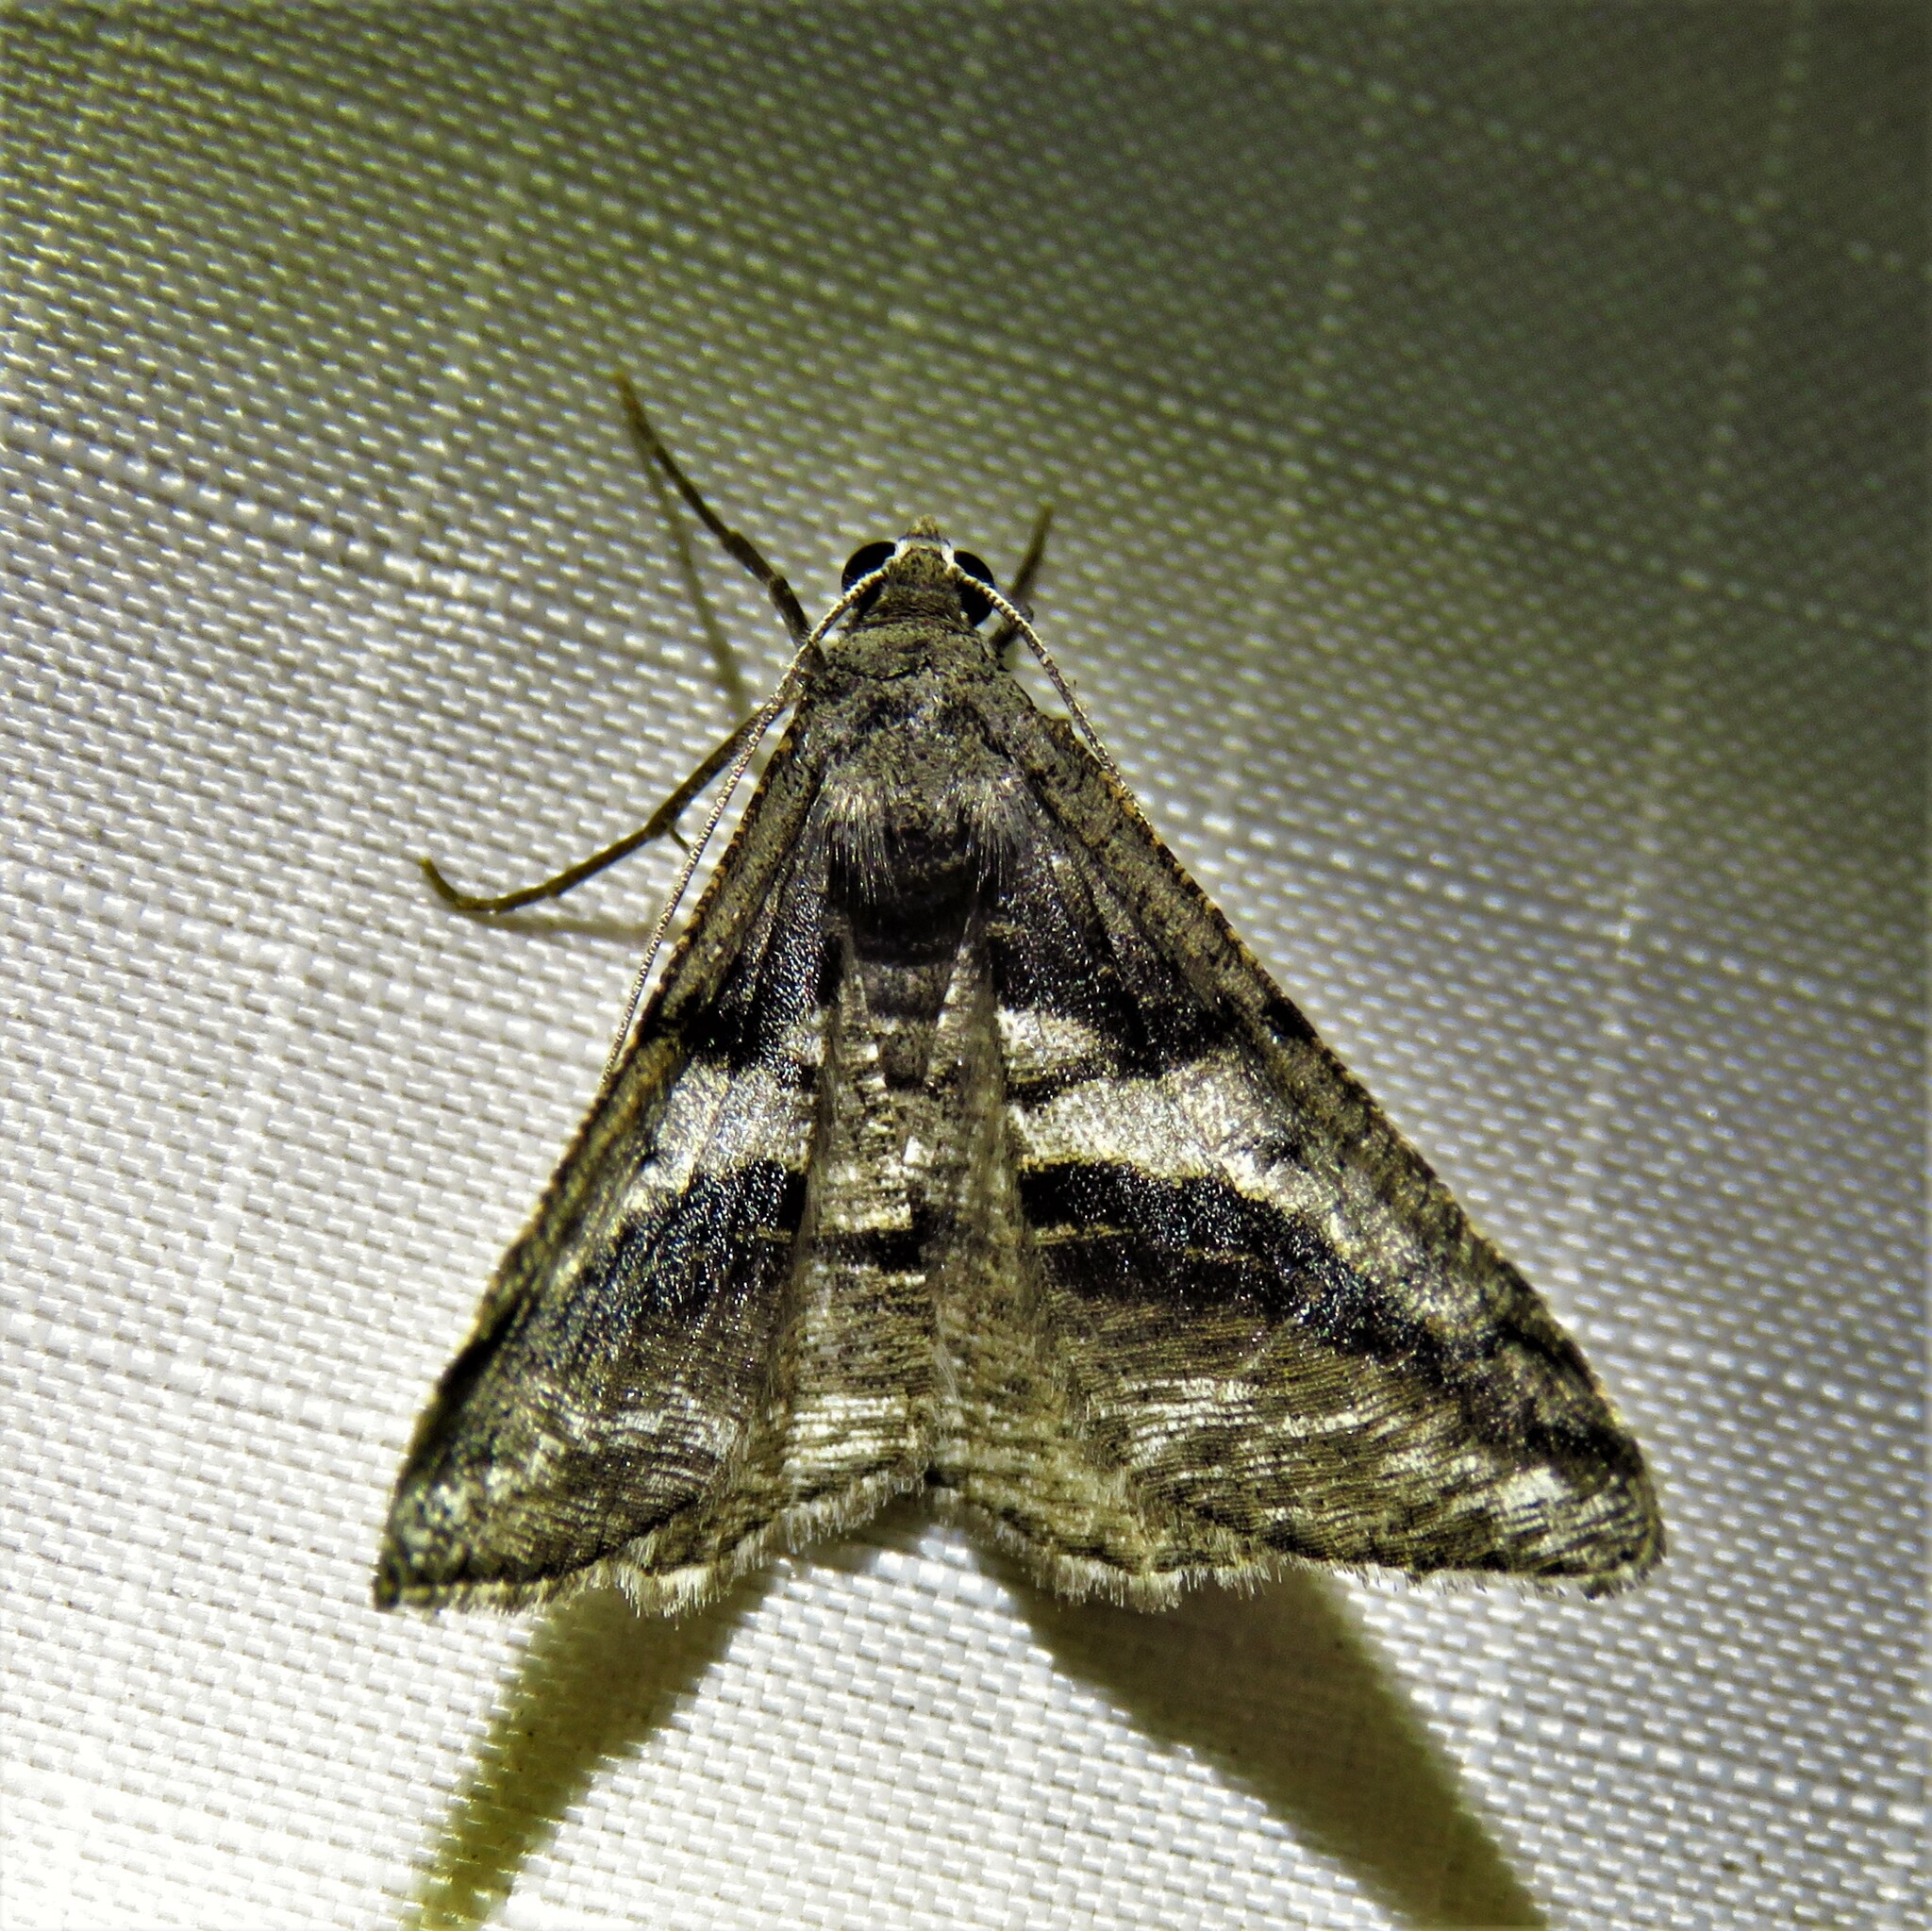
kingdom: Animalia
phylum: Arthropoda
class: Insecta
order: Lepidoptera
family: Geometridae
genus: Digrammia
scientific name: Digrammia atrofasciata
